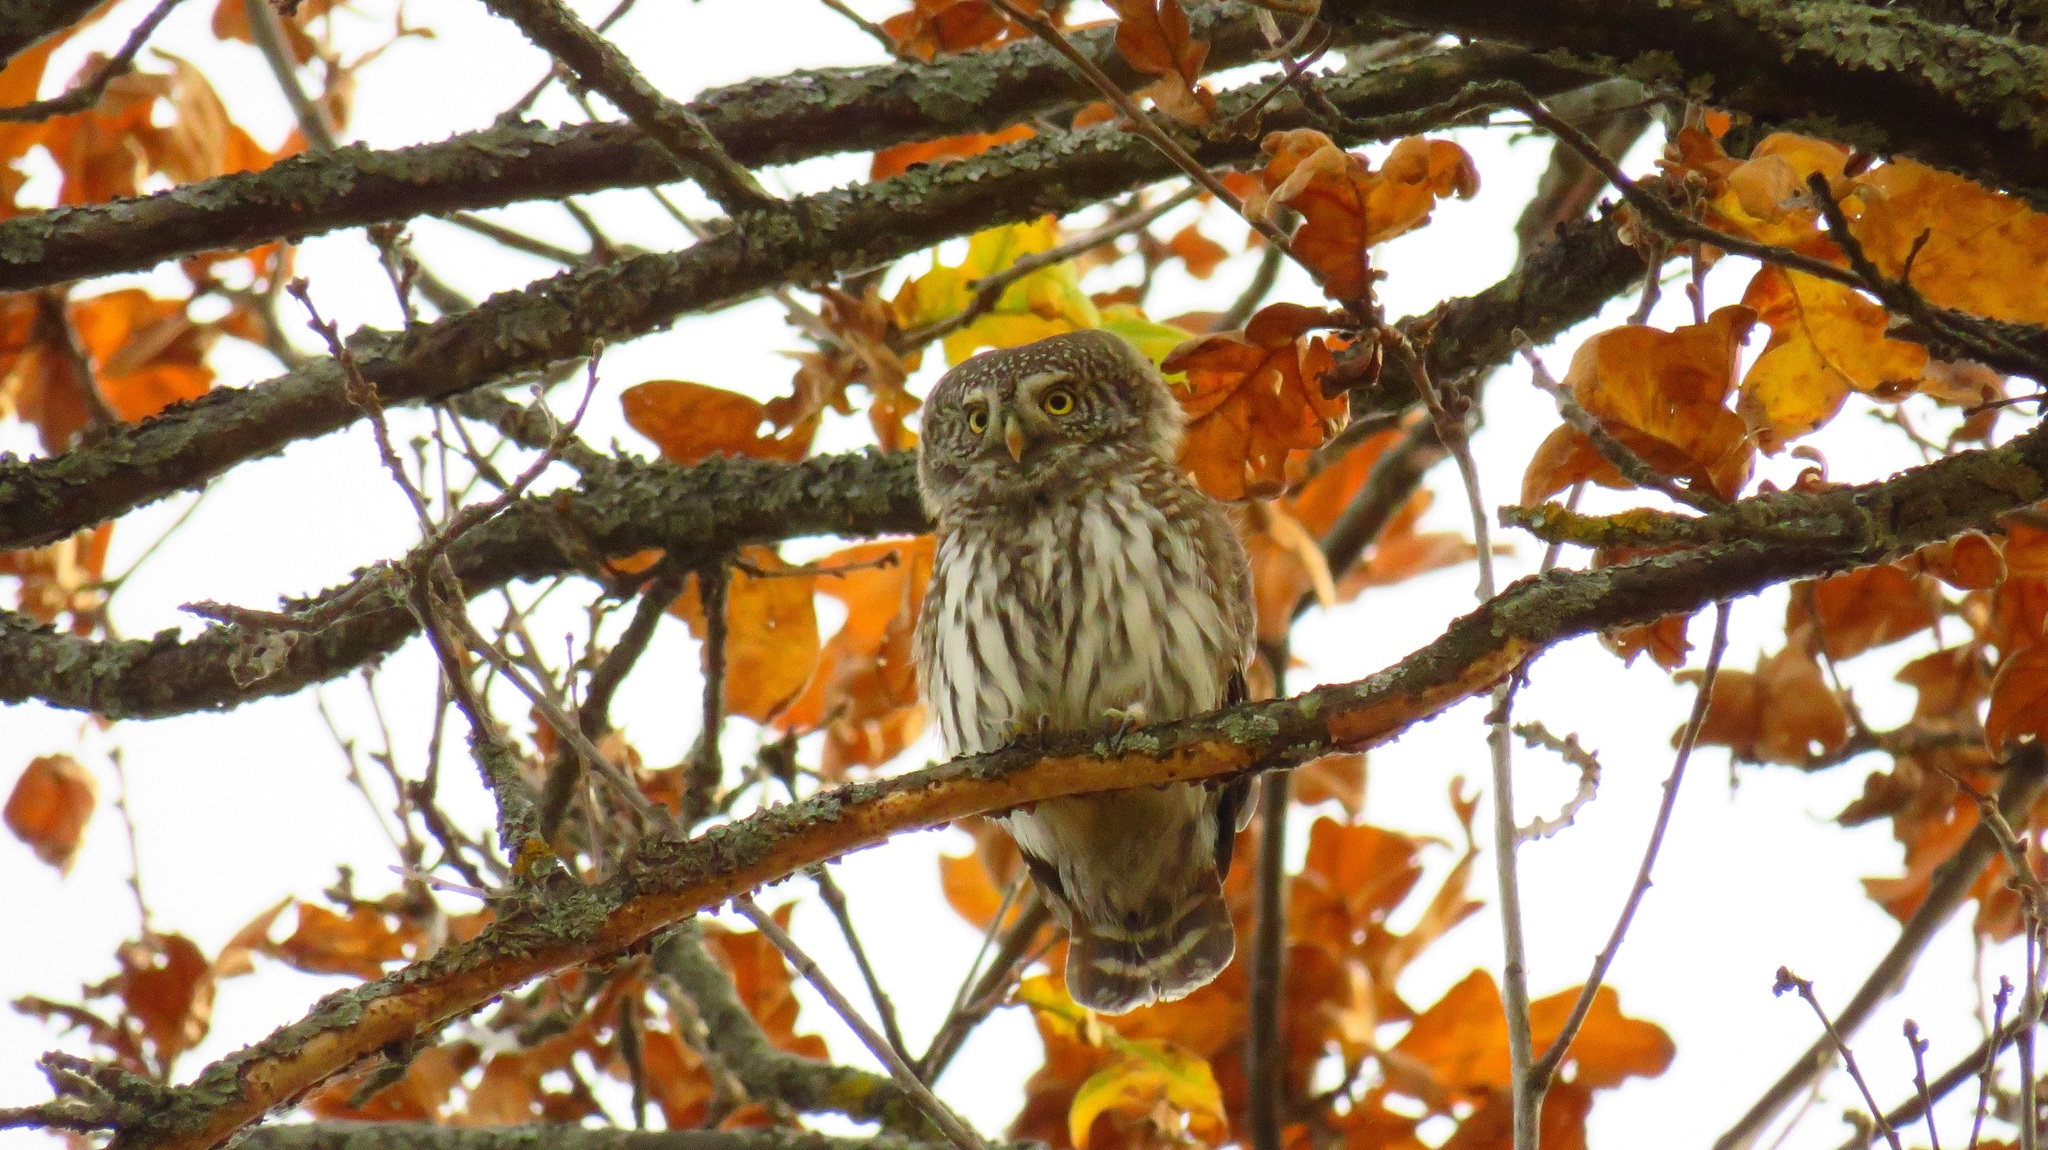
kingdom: Animalia
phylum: Chordata
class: Aves
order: Strigiformes
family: Strigidae
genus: Glaucidium
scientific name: Glaucidium passerinum
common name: Eurasian pygmy owl
